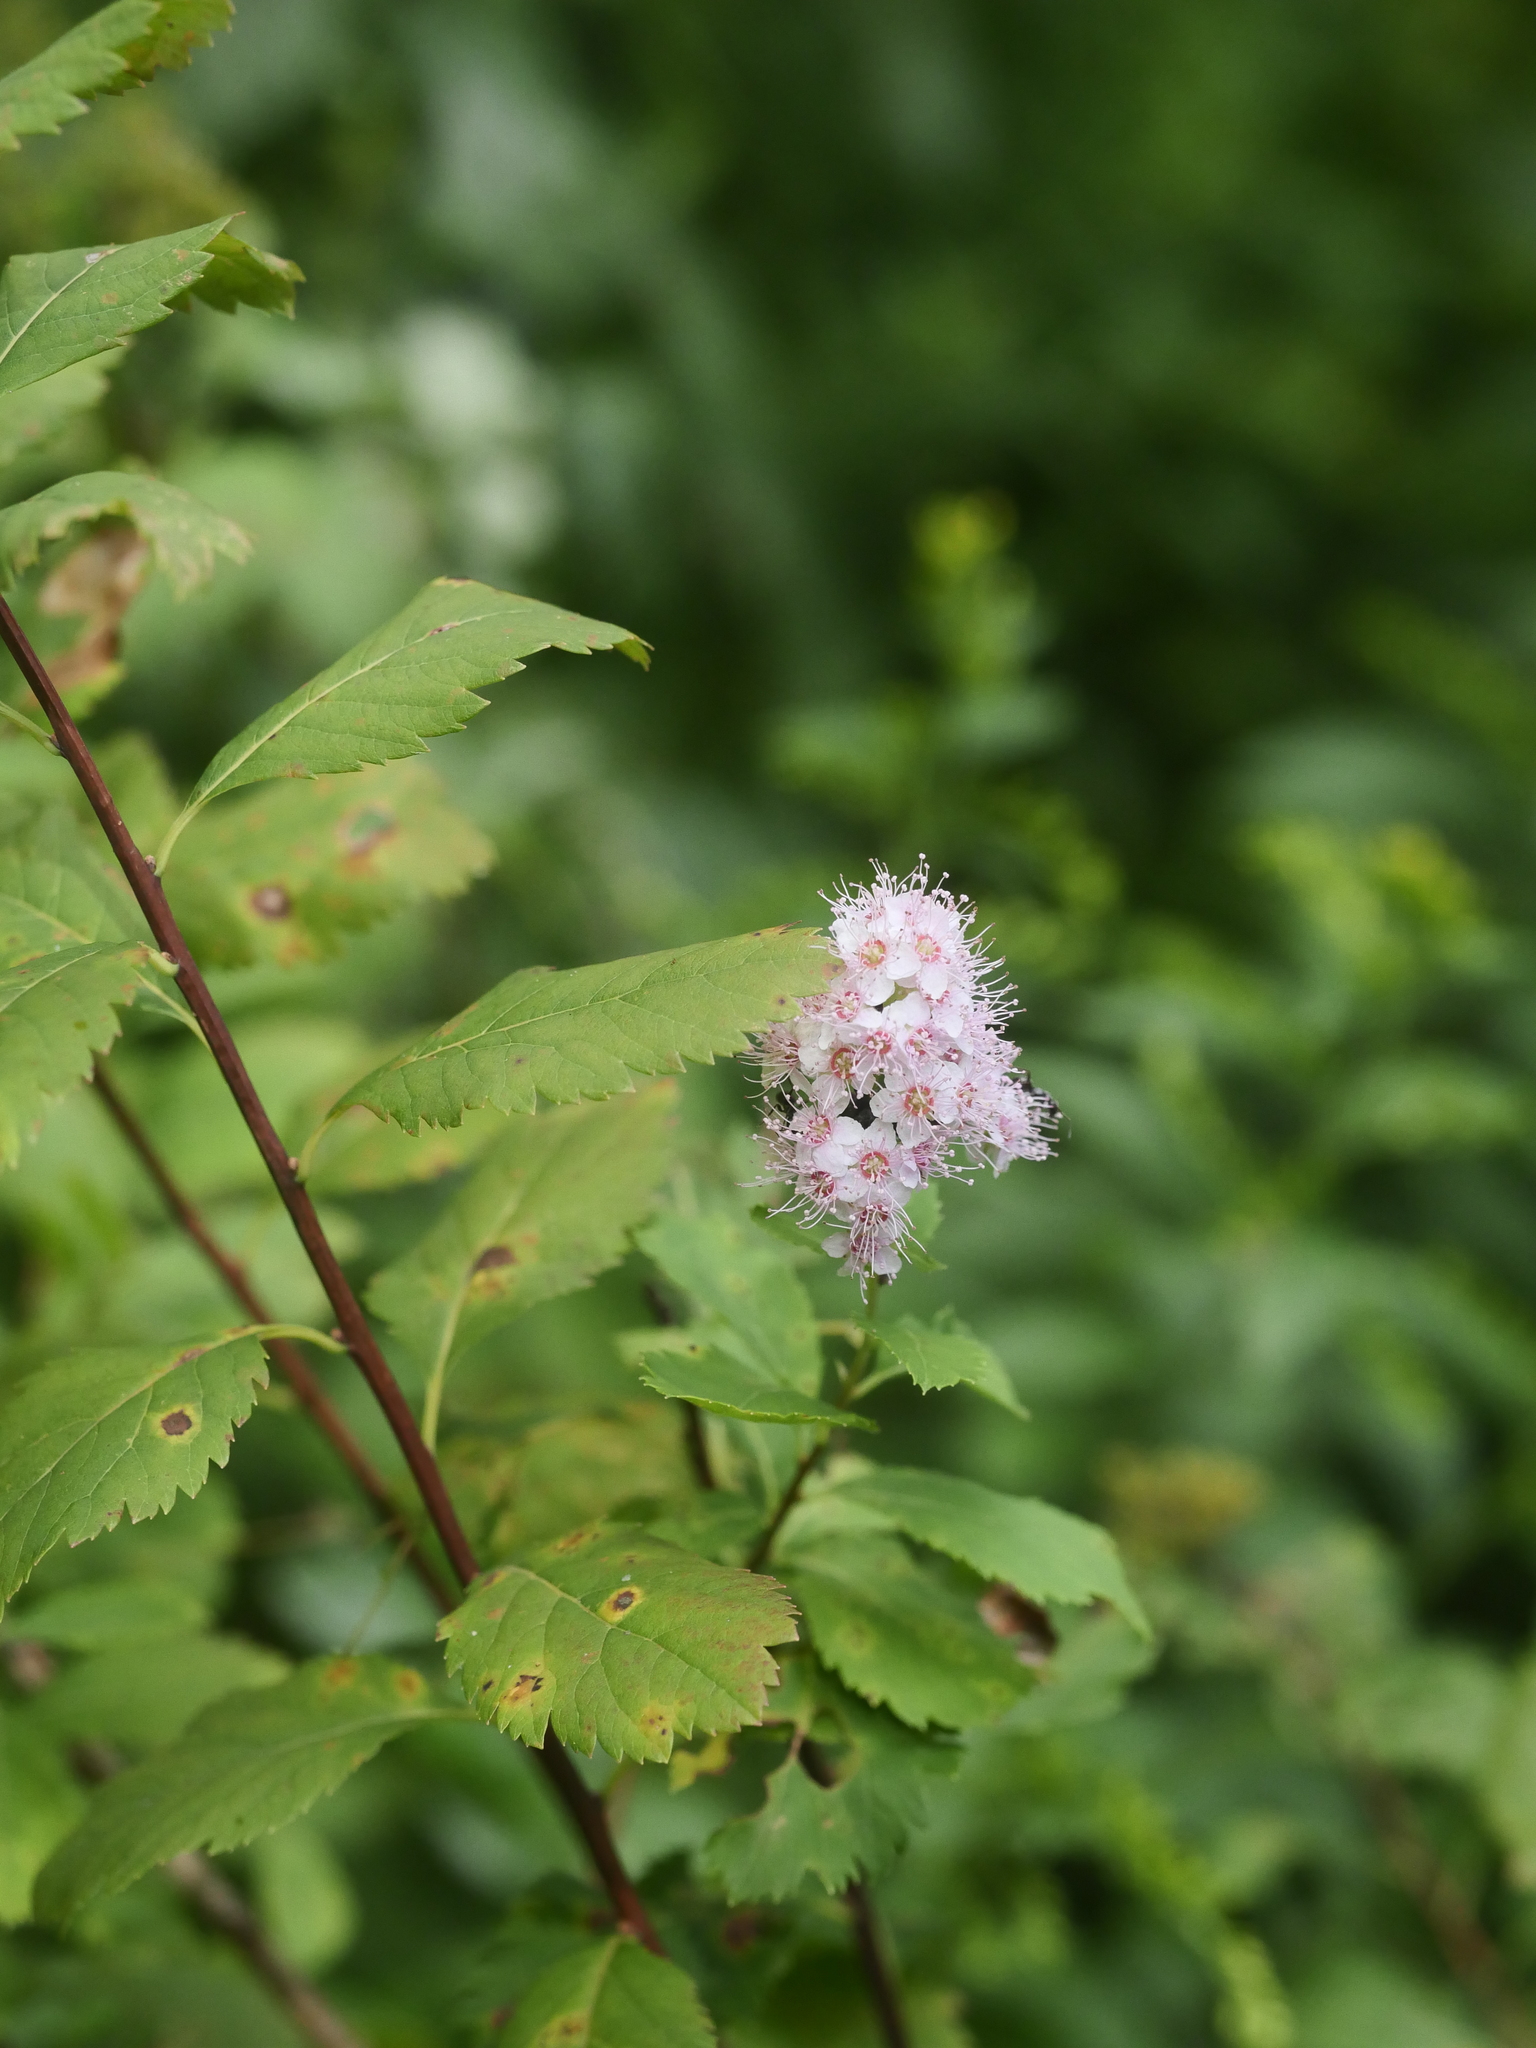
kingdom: Plantae
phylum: Tracheophyta
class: Magnoliopsida
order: Rosales
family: Rosaceae
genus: Spiraea
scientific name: Spiraea alba
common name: Pale bridewort
